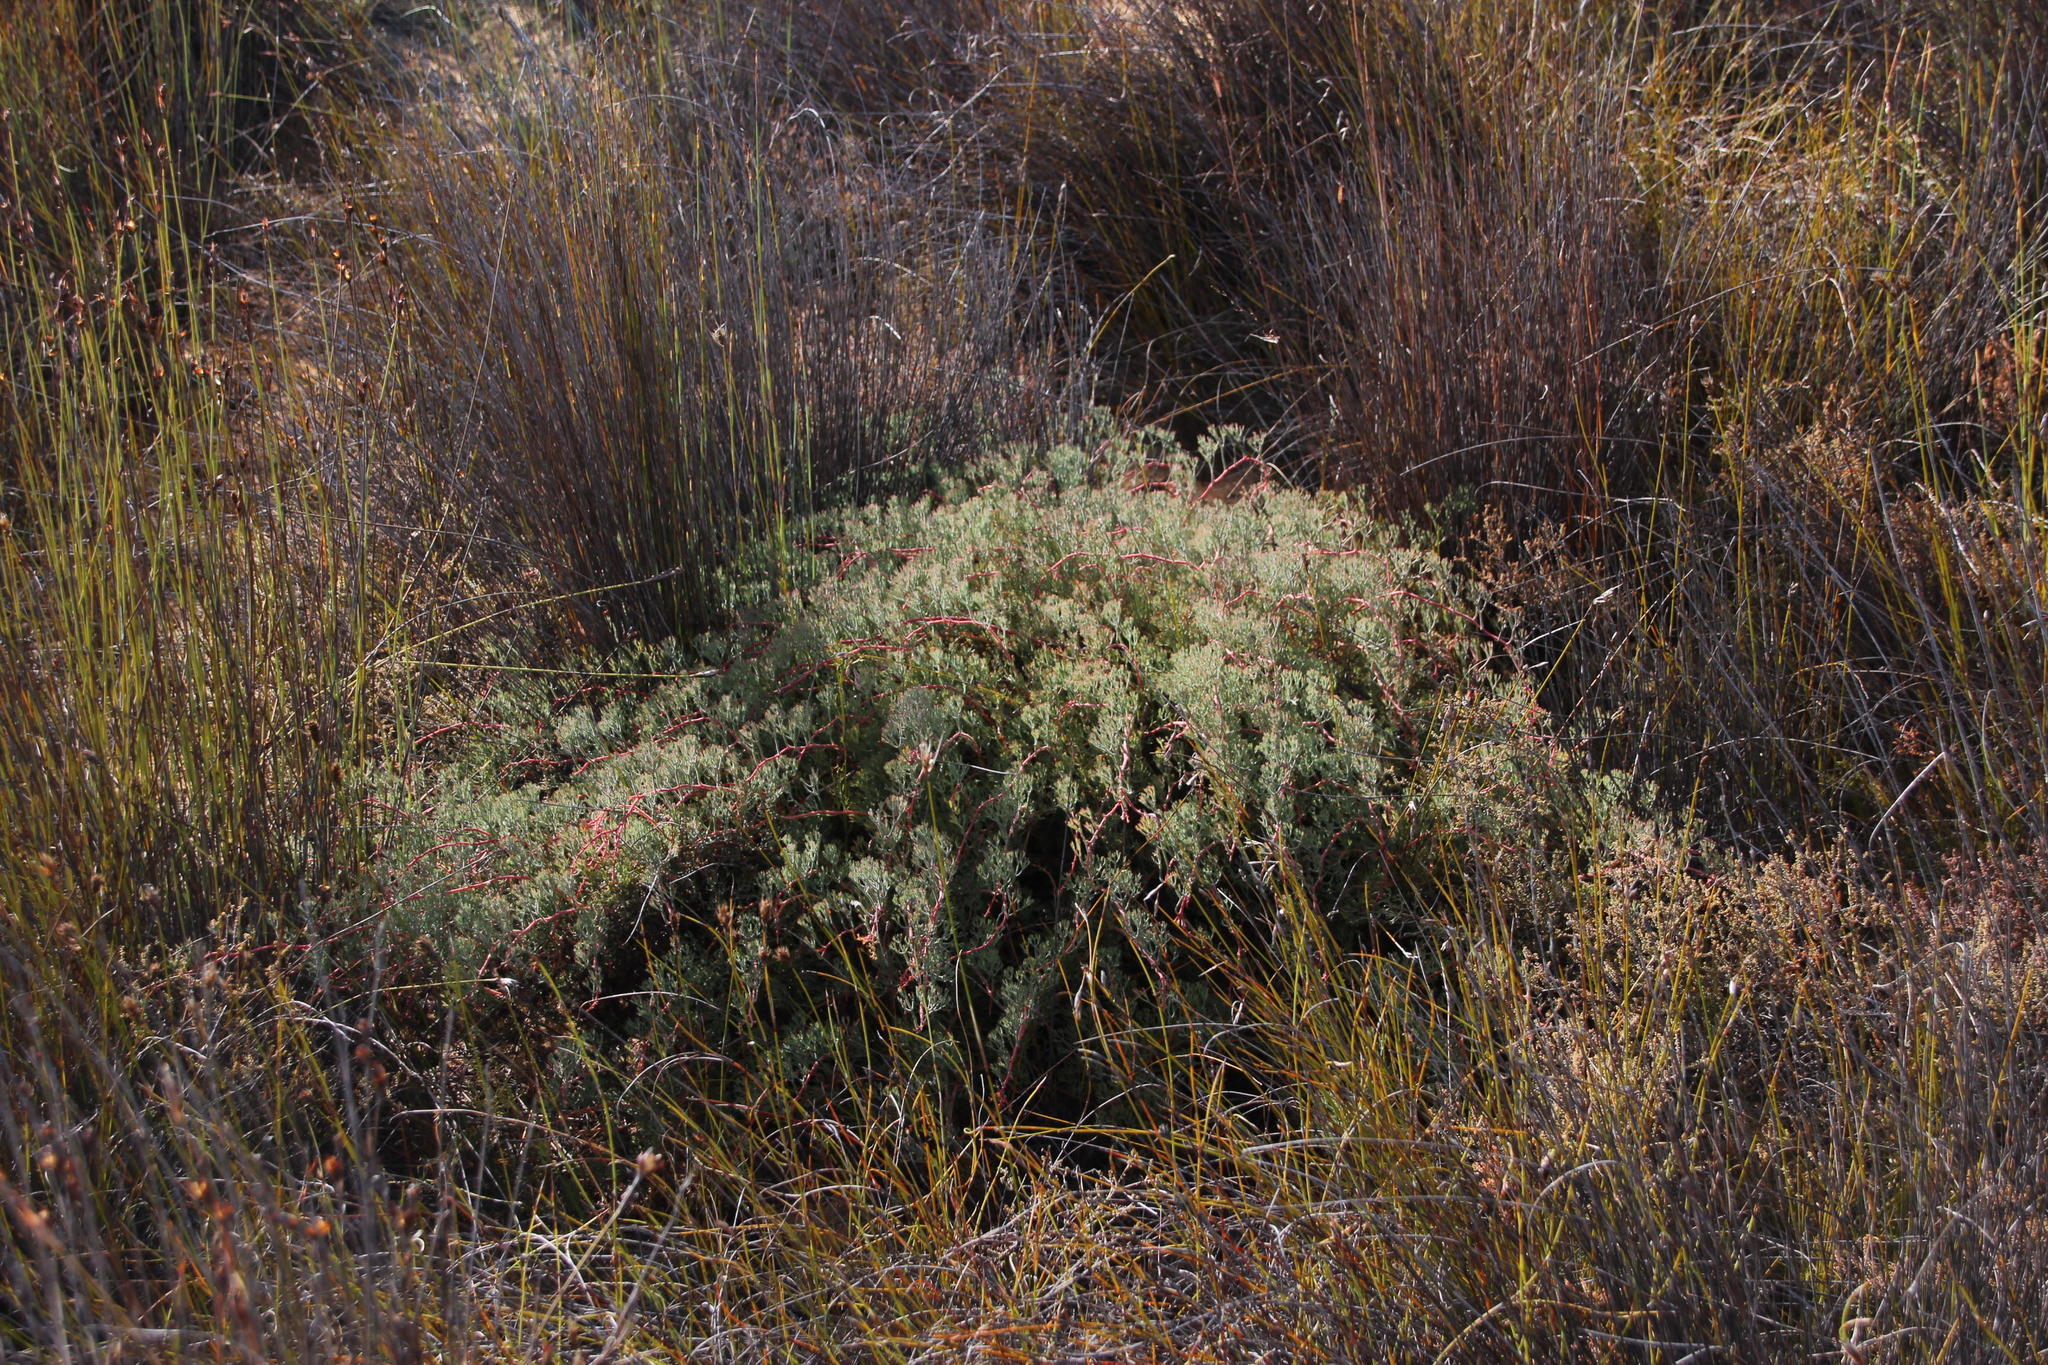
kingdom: Plantae
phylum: Tracheophyta
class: Magnoliopsida
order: Proteales
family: Proteaceae
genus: Serruria
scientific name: Serruria effusa
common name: Candelabra spiderhead
